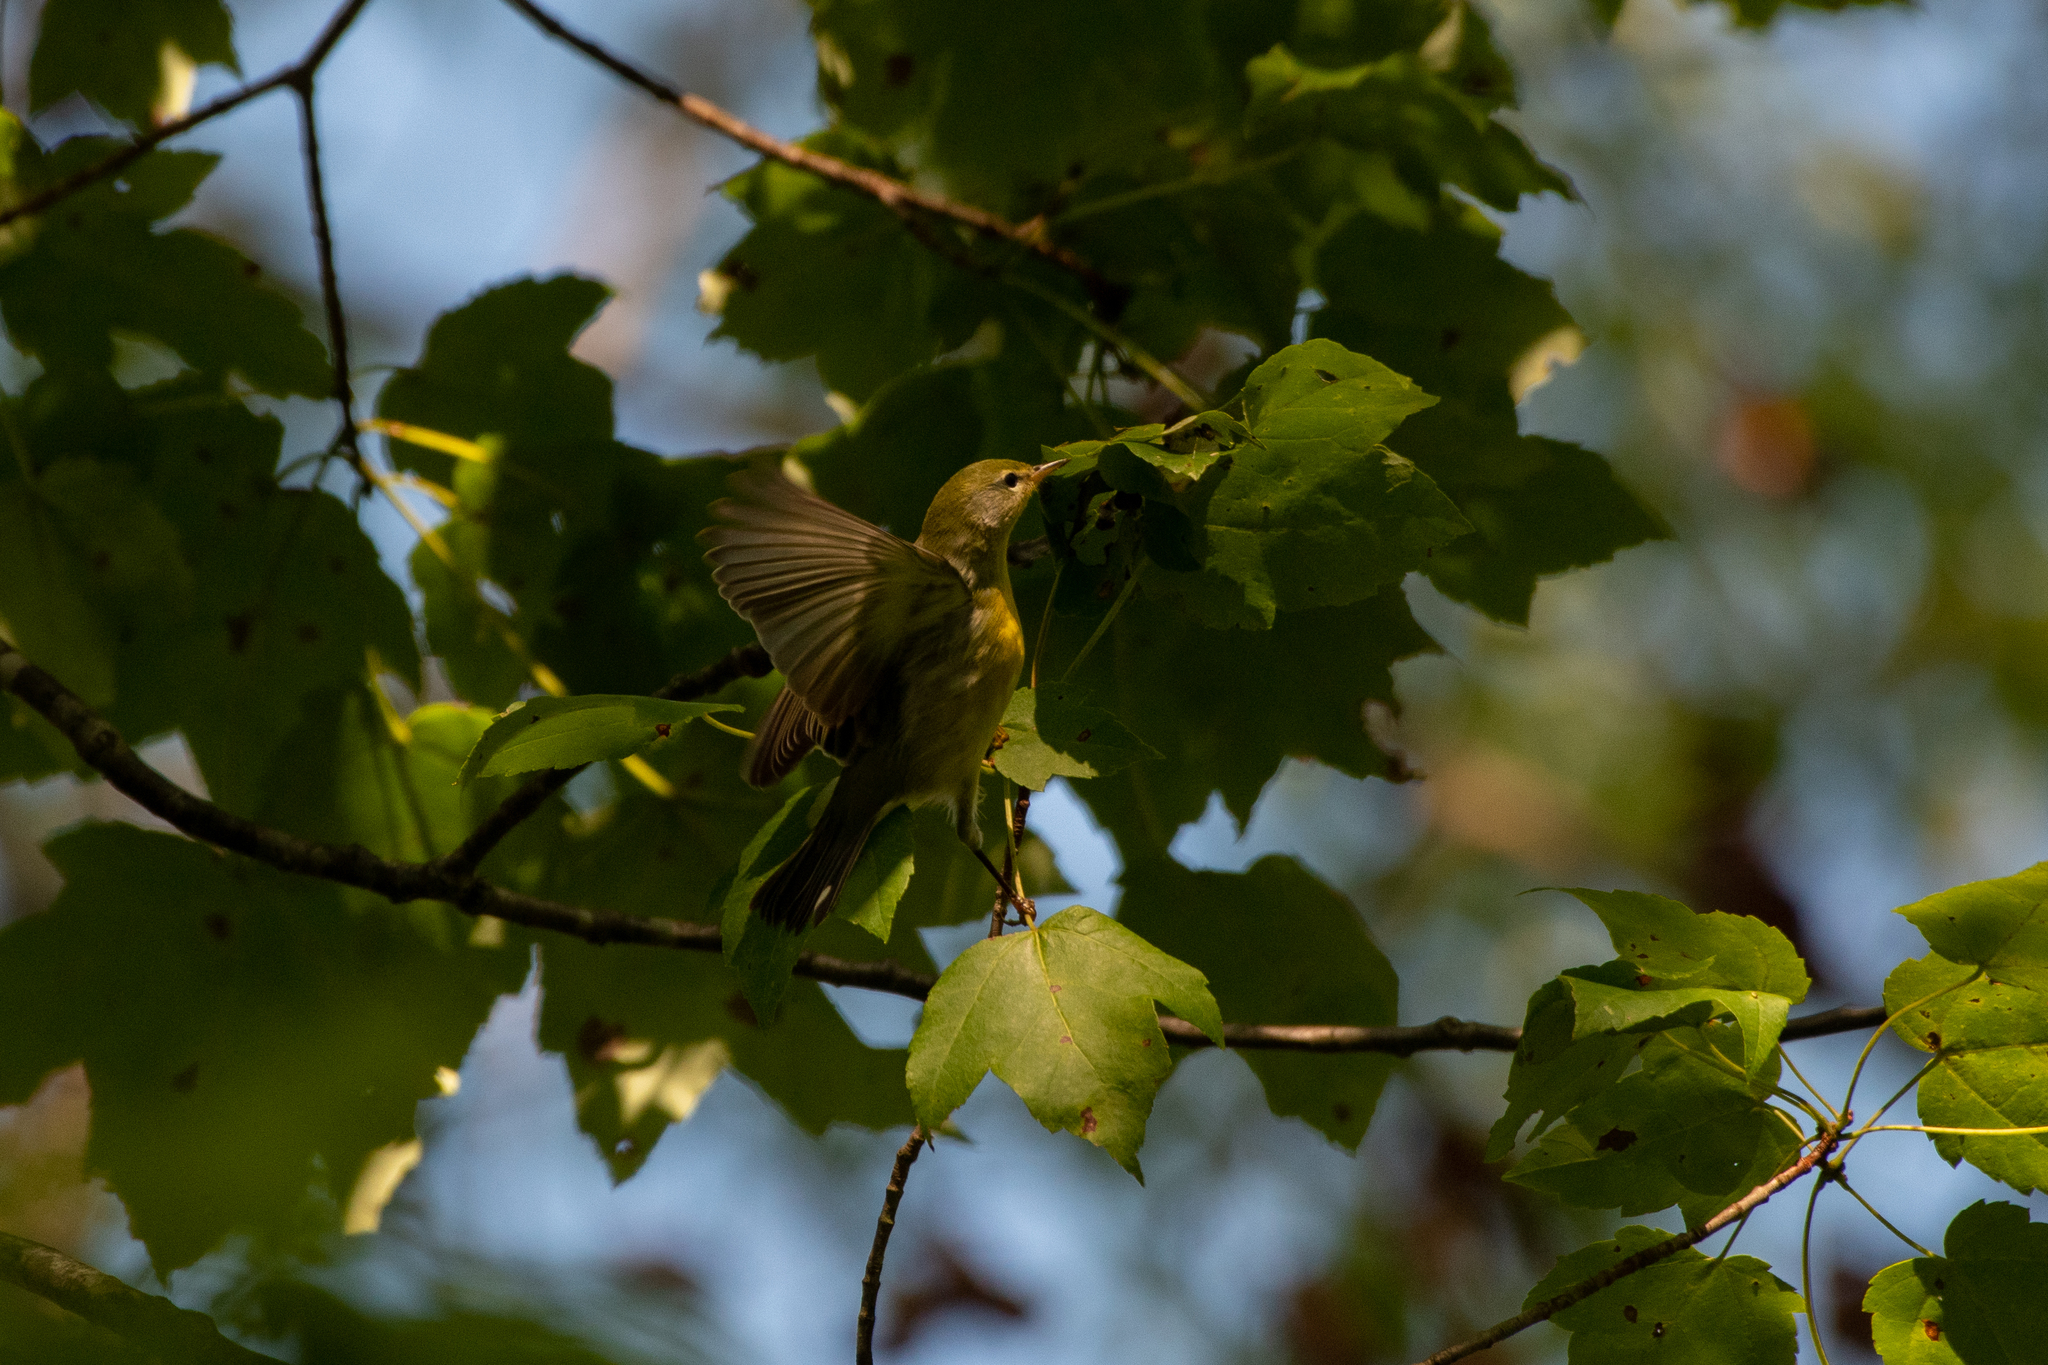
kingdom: Animalia
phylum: Chordata
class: Aves
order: Passeriformes
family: Parulidae
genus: Setophaga
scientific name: Setophaga americana
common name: Northern parula
